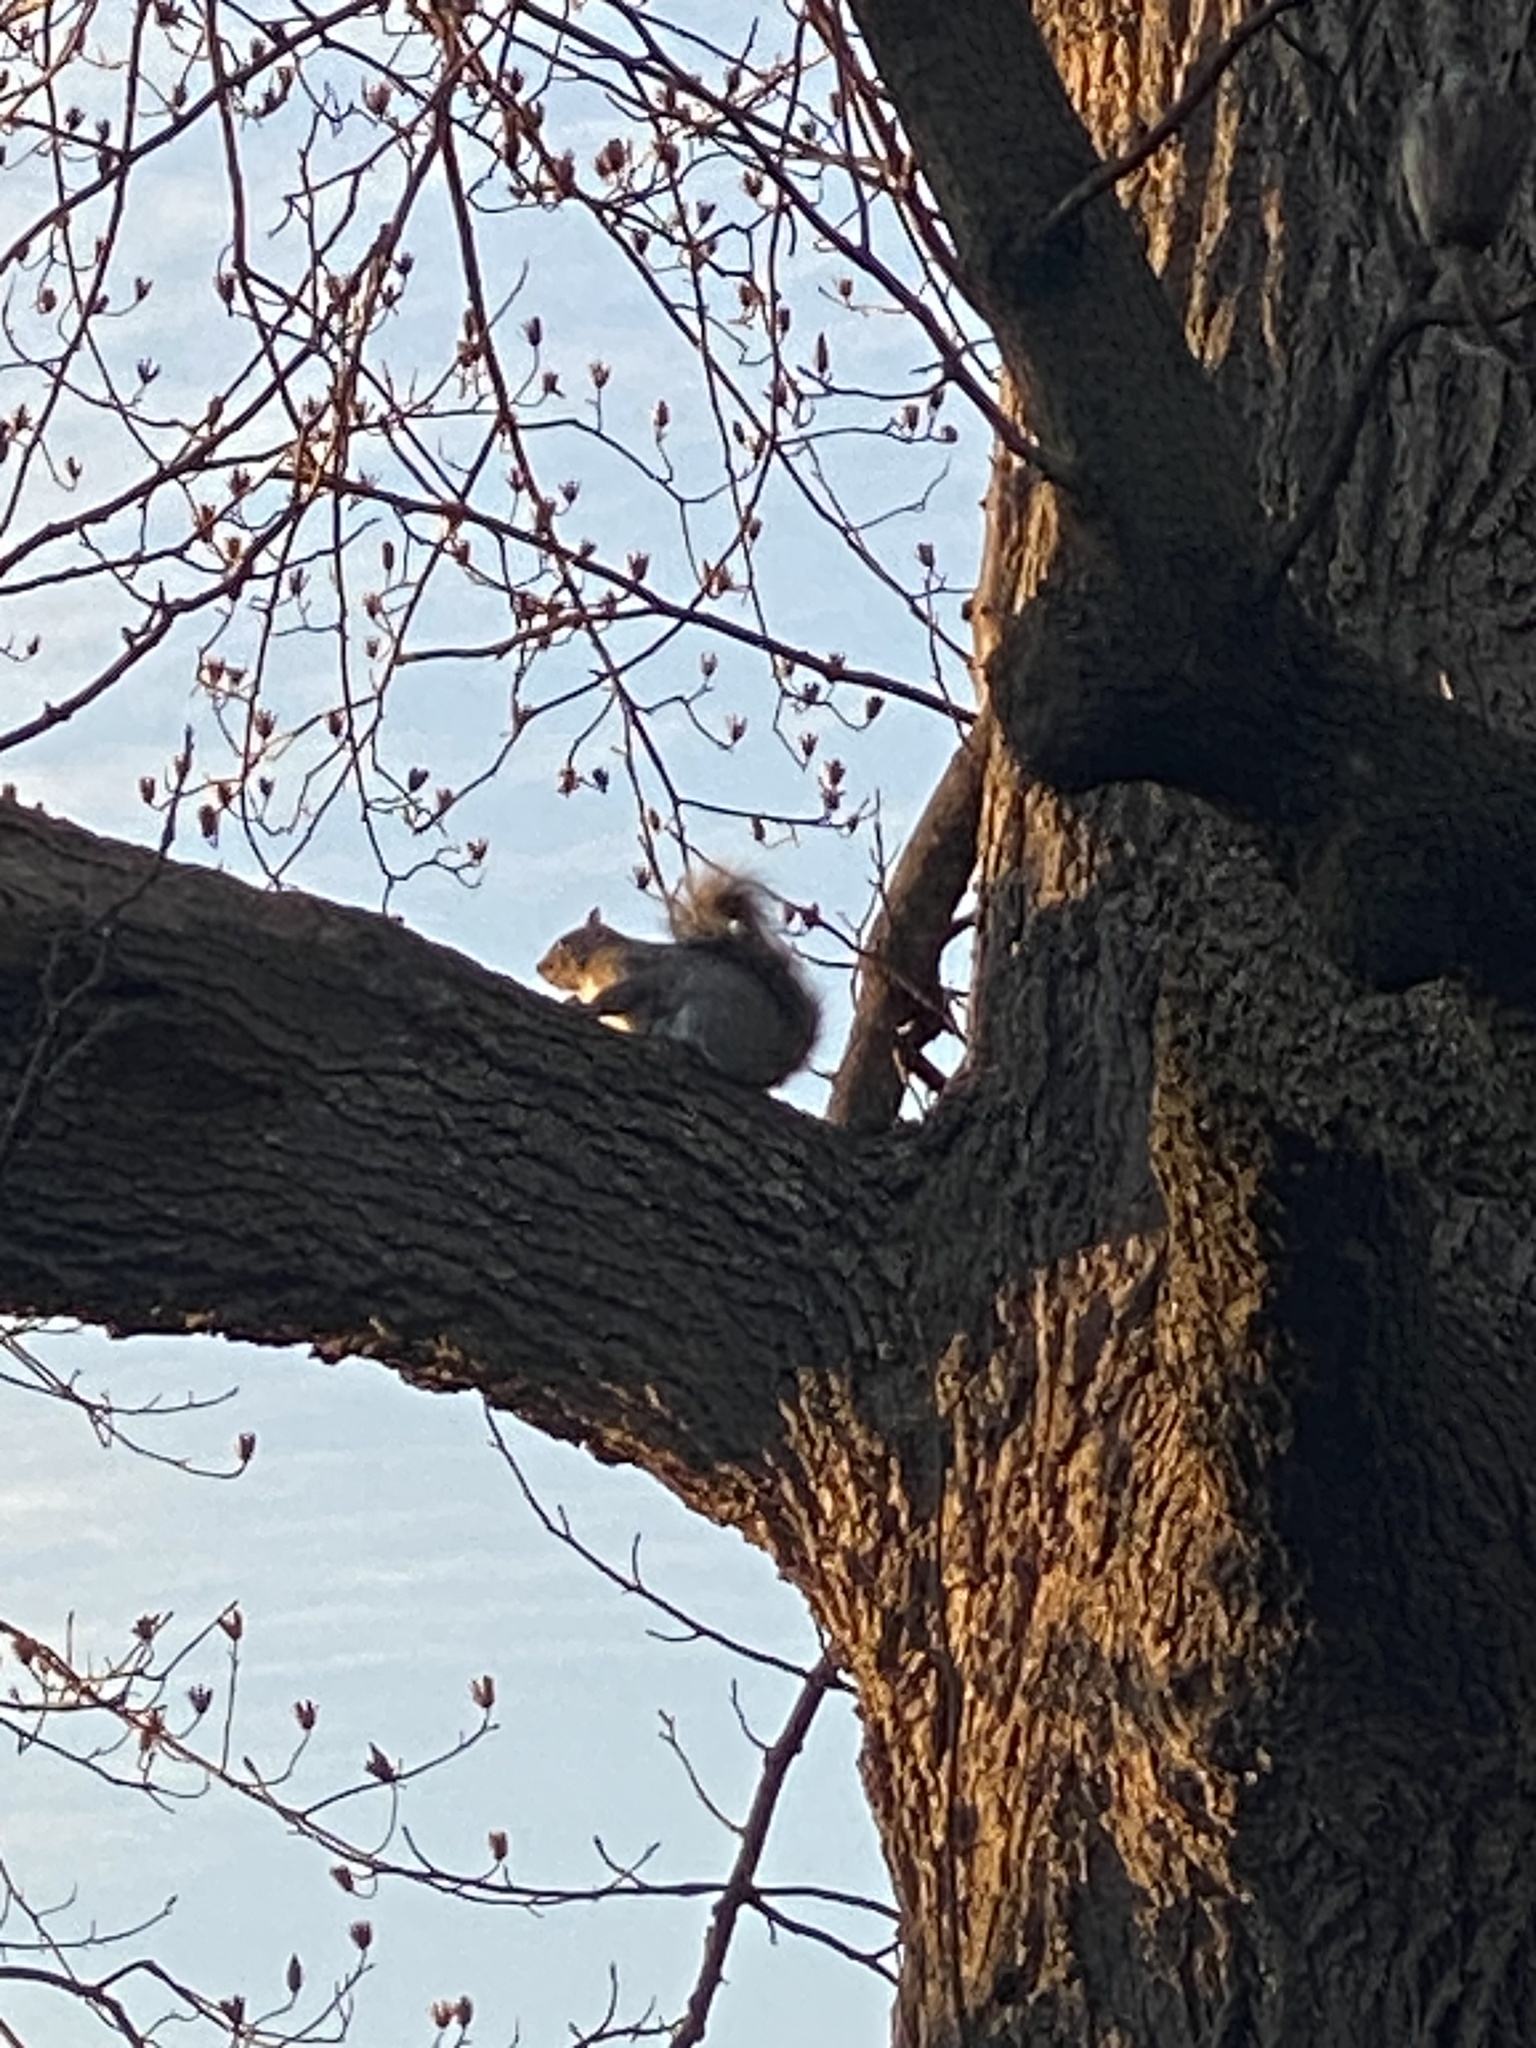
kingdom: Animalia
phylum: Chordata
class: Mammalia
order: Rodentia
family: Sciuridae
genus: Sciurus
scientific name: Sciurus carolinensis
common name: Eastern gray squirrel
